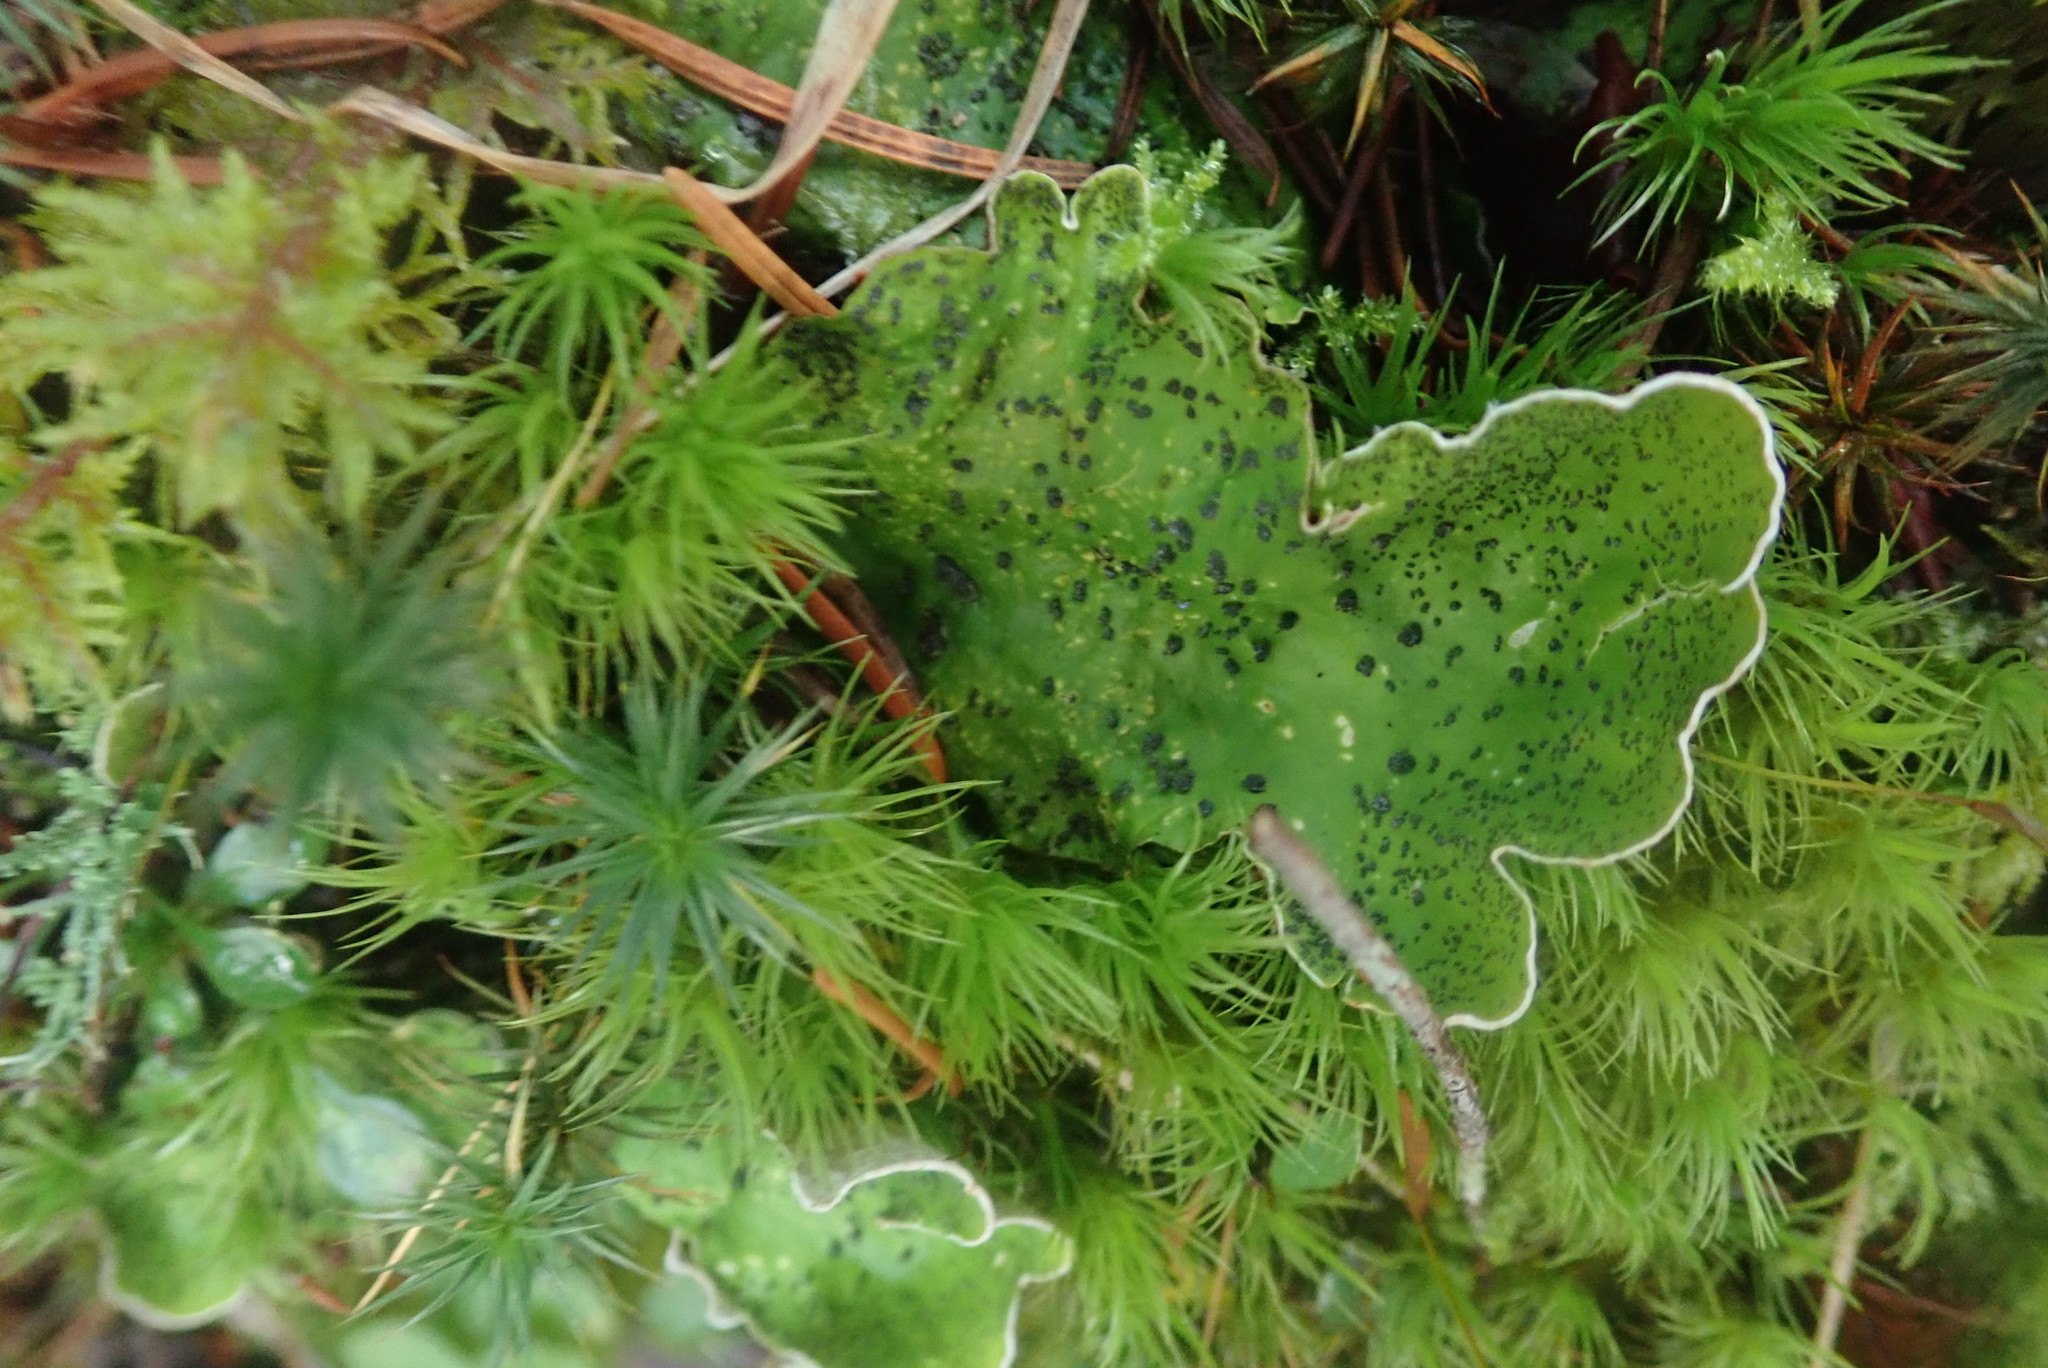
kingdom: Fungi
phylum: Ascomycota
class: Lecanoromycetes
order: Peltigerales
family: Peltigeraceae
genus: Peltigera
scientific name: Peltigera aphthosa
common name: Common freckle pelt lichen
